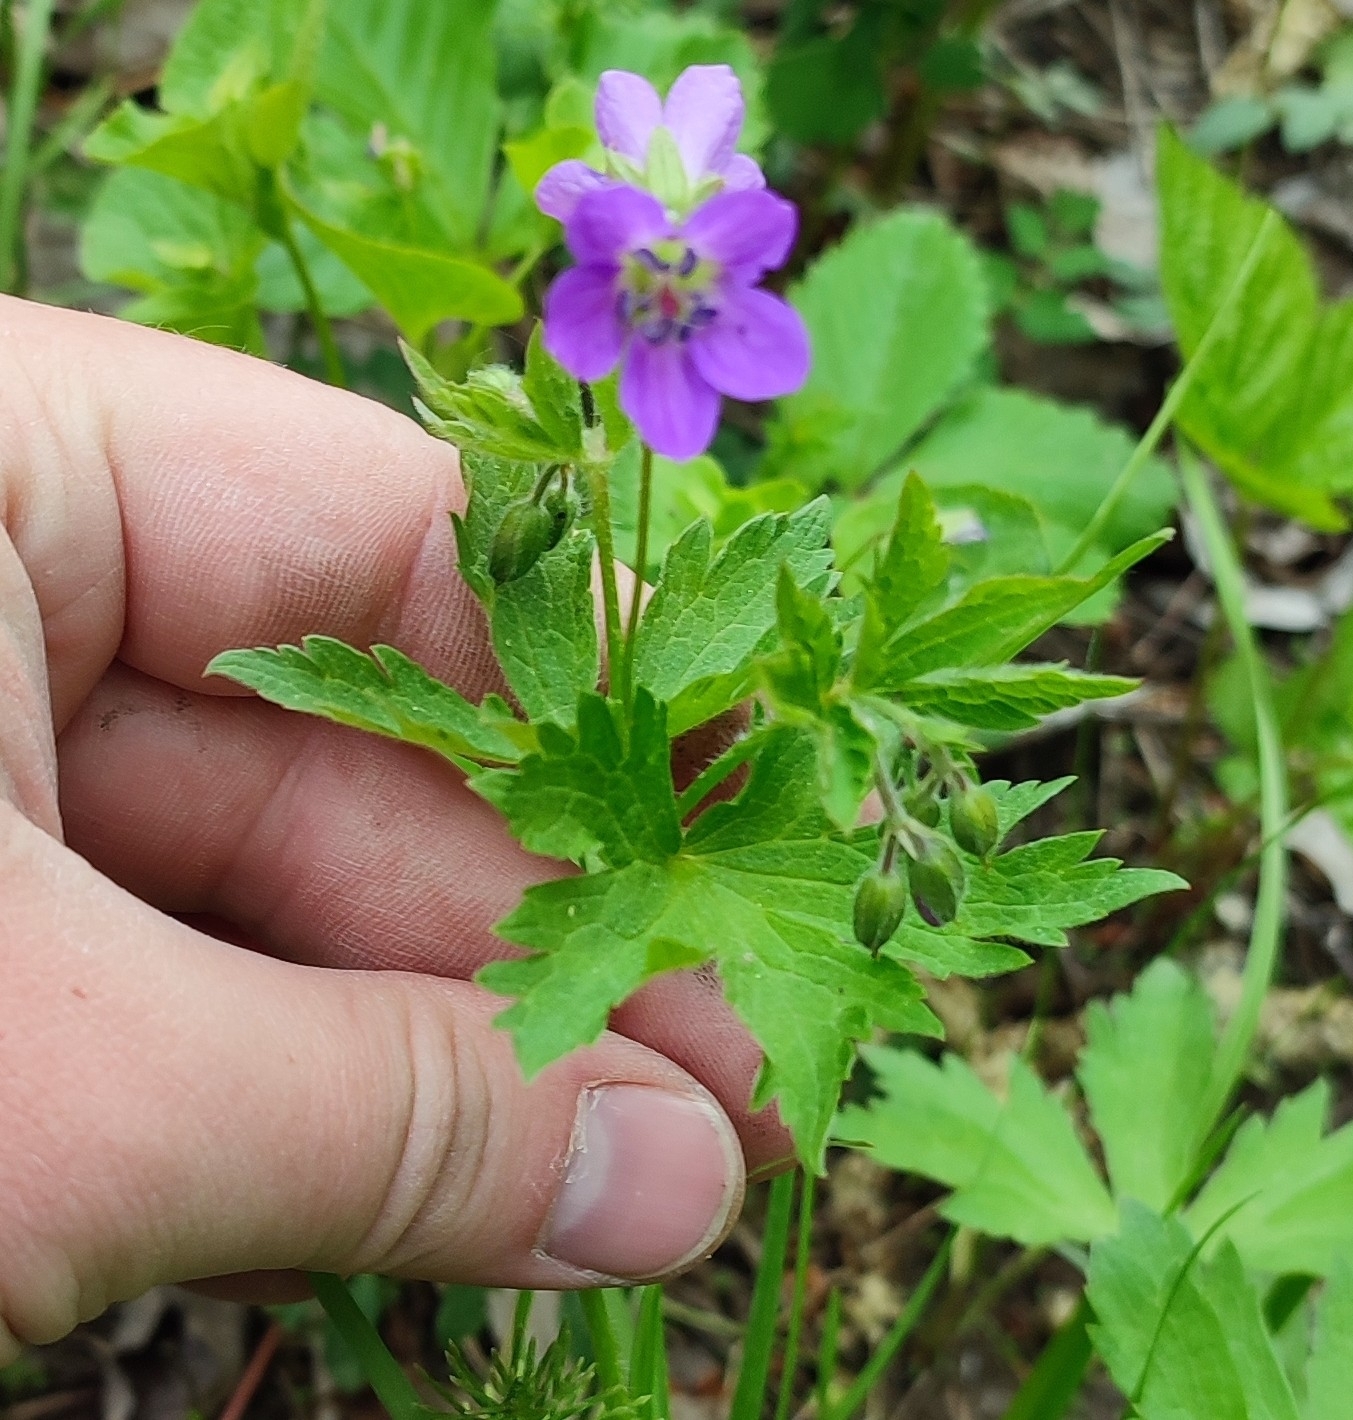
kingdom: Plantae
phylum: Tracheophyta
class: Magnoliopsida
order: Geraniales
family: Geraniaceae
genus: Geranium
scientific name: Geranium sylvaticum
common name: Wood crane's-bill
